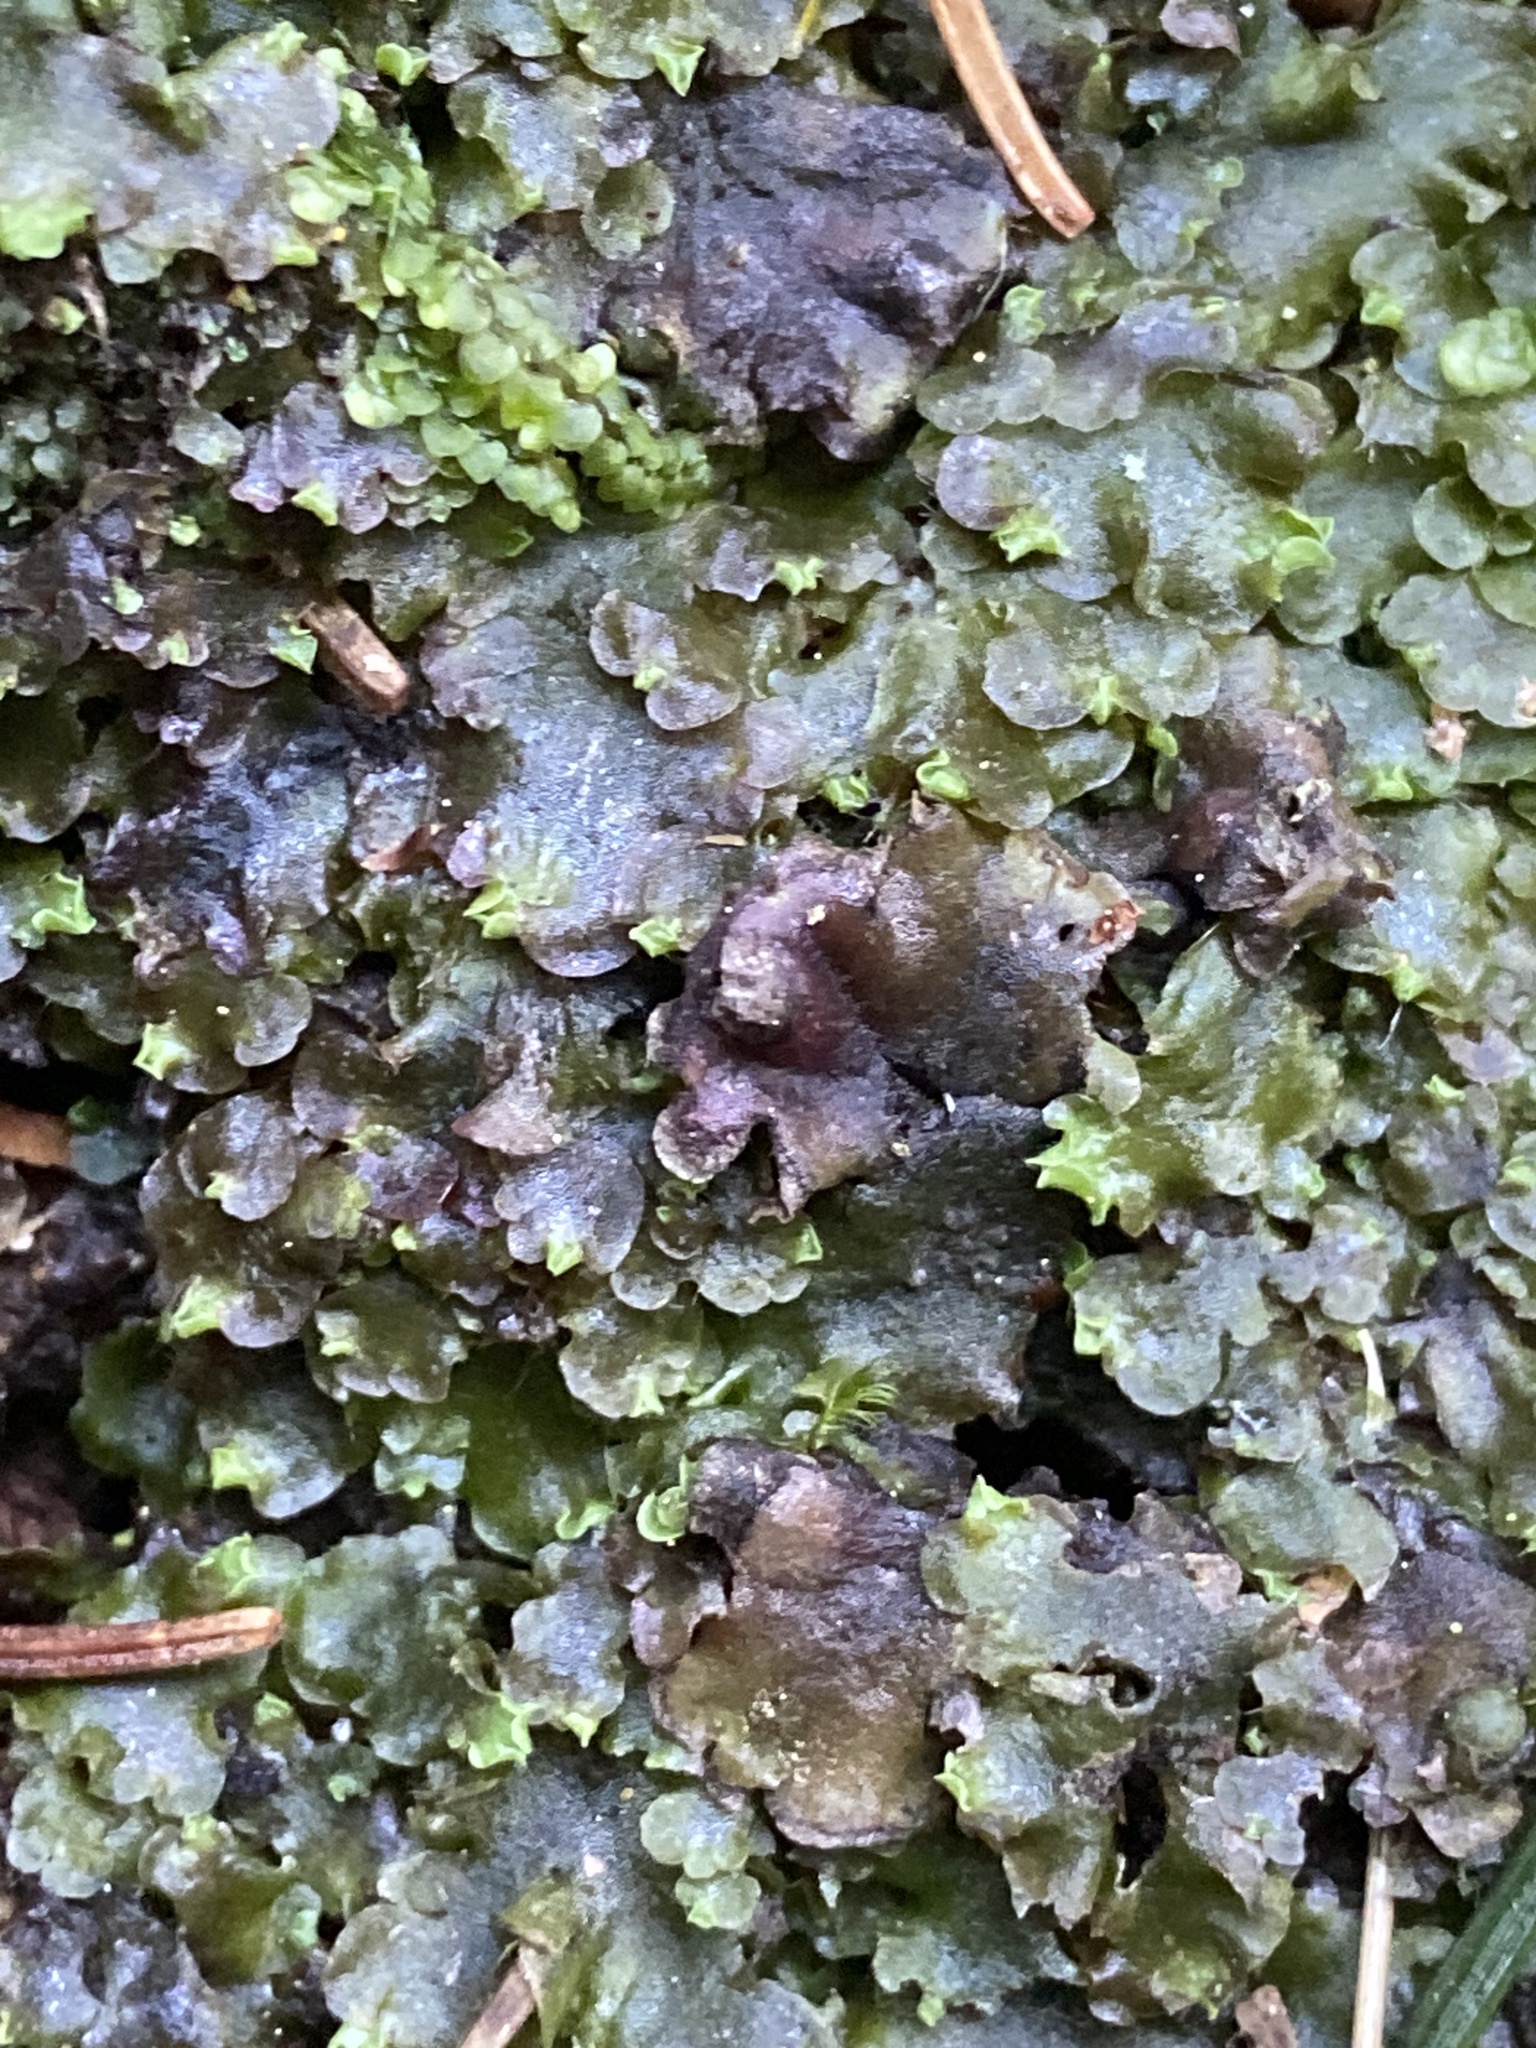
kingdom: Plantae
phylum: Marchantiophyta
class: Jungermanniopsida
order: Pelliales
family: Pelliaceae
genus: Pellia
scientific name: Pellia epiphylla
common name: Common pellia
